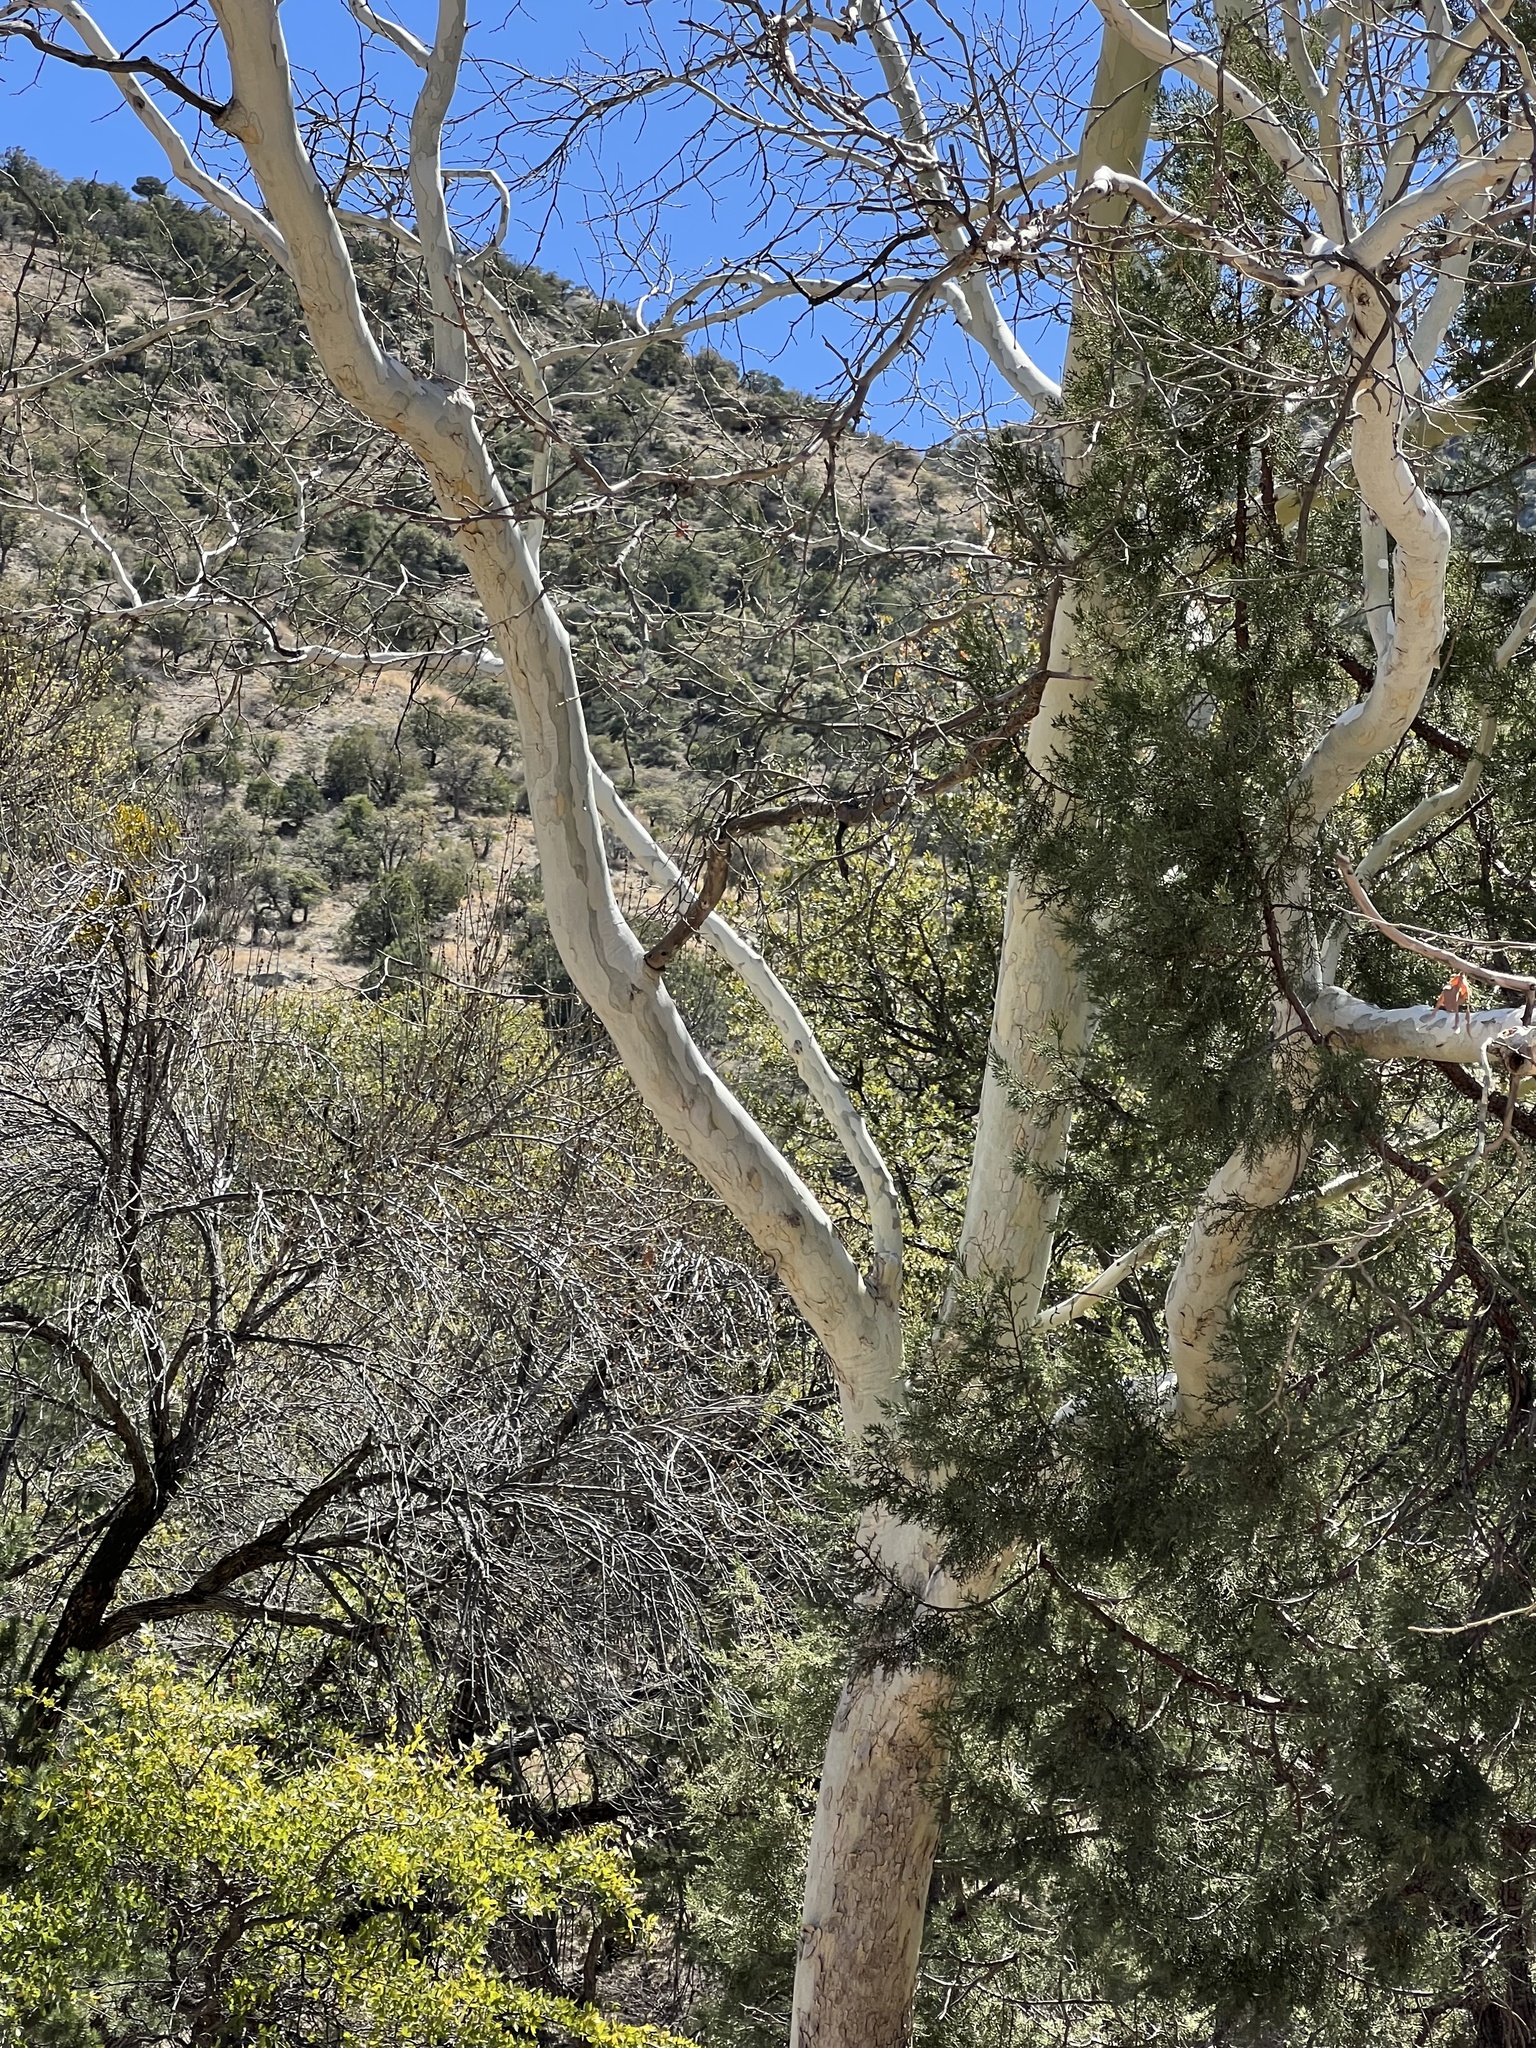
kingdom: Plantae
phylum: Tracheophyta
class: Magnoliopsida
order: Proteales
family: Platanaceae
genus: Platanus
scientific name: Platanus wrightii
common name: Arizona sycamore
